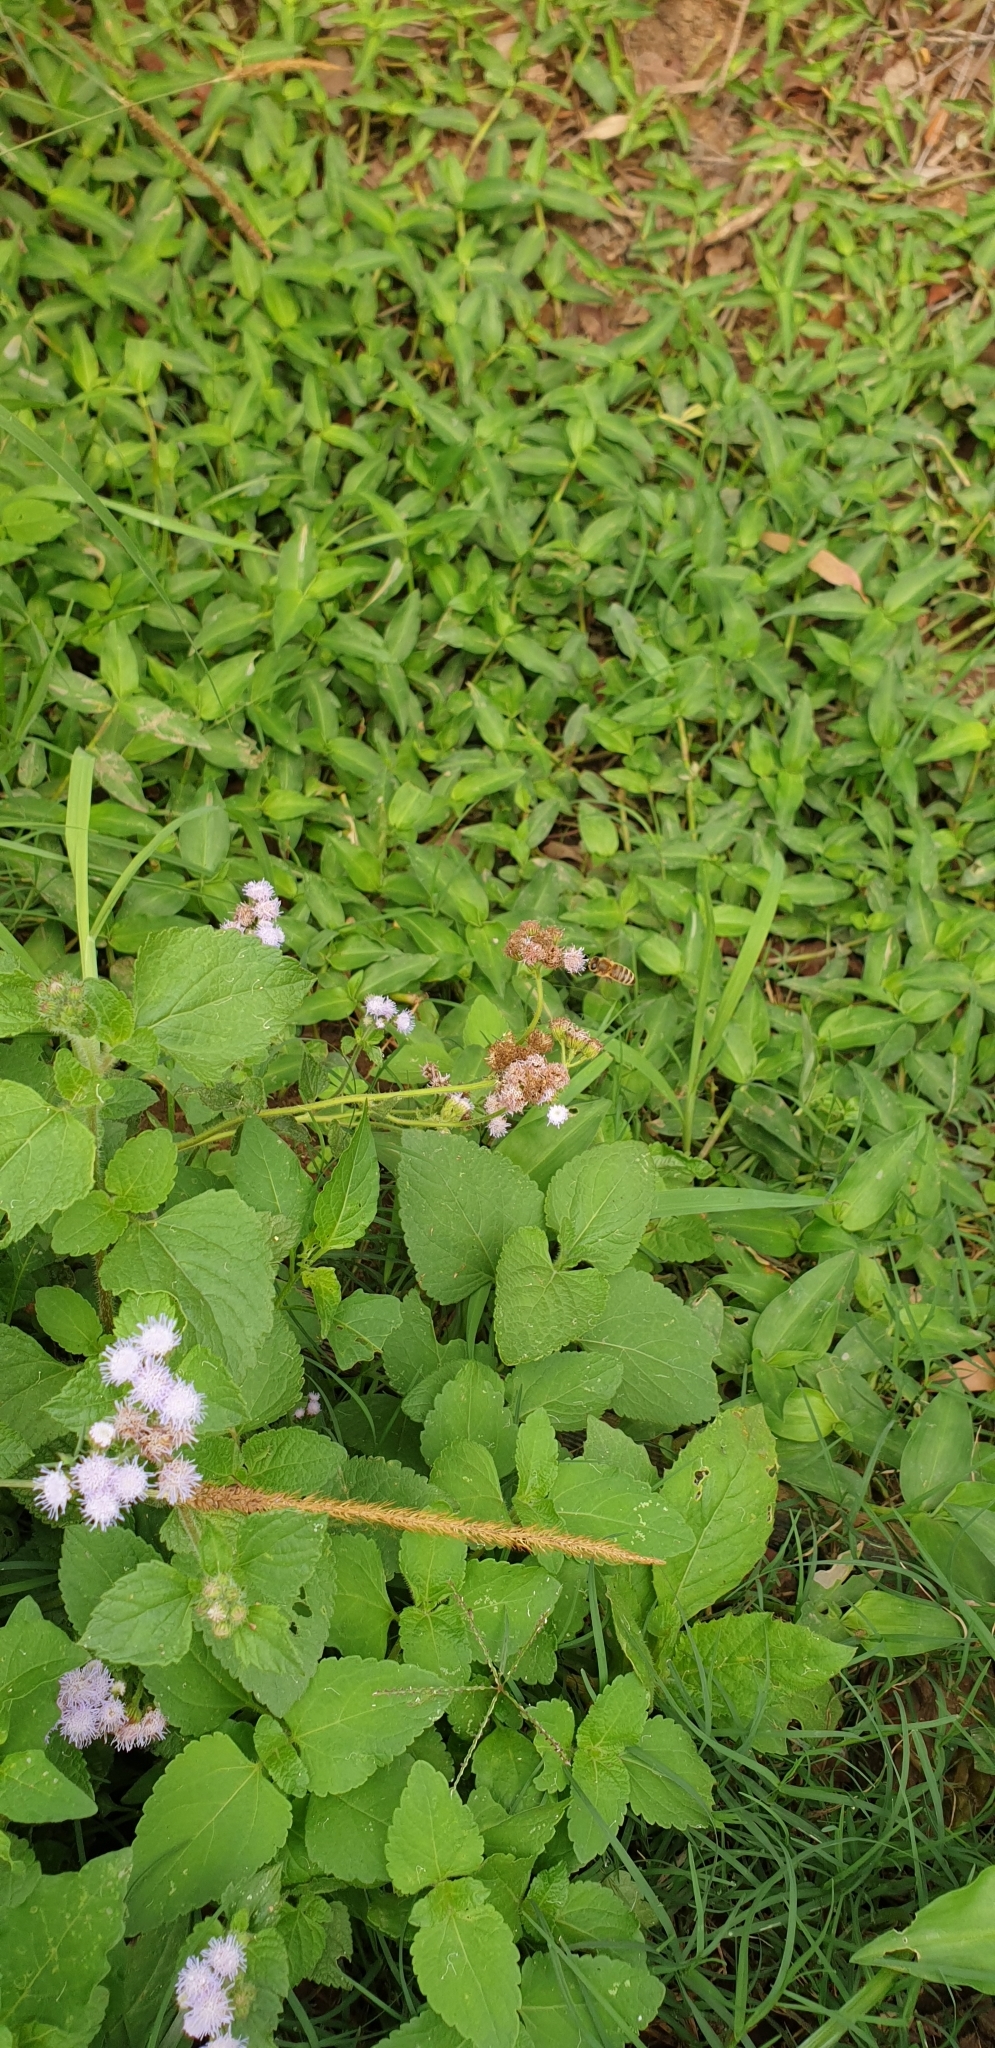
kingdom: Animalia
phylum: Arthropoda
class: Insecta
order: Hymenoptera
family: Apidae
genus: Apis
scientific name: Apis mellifera
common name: Honey bee
